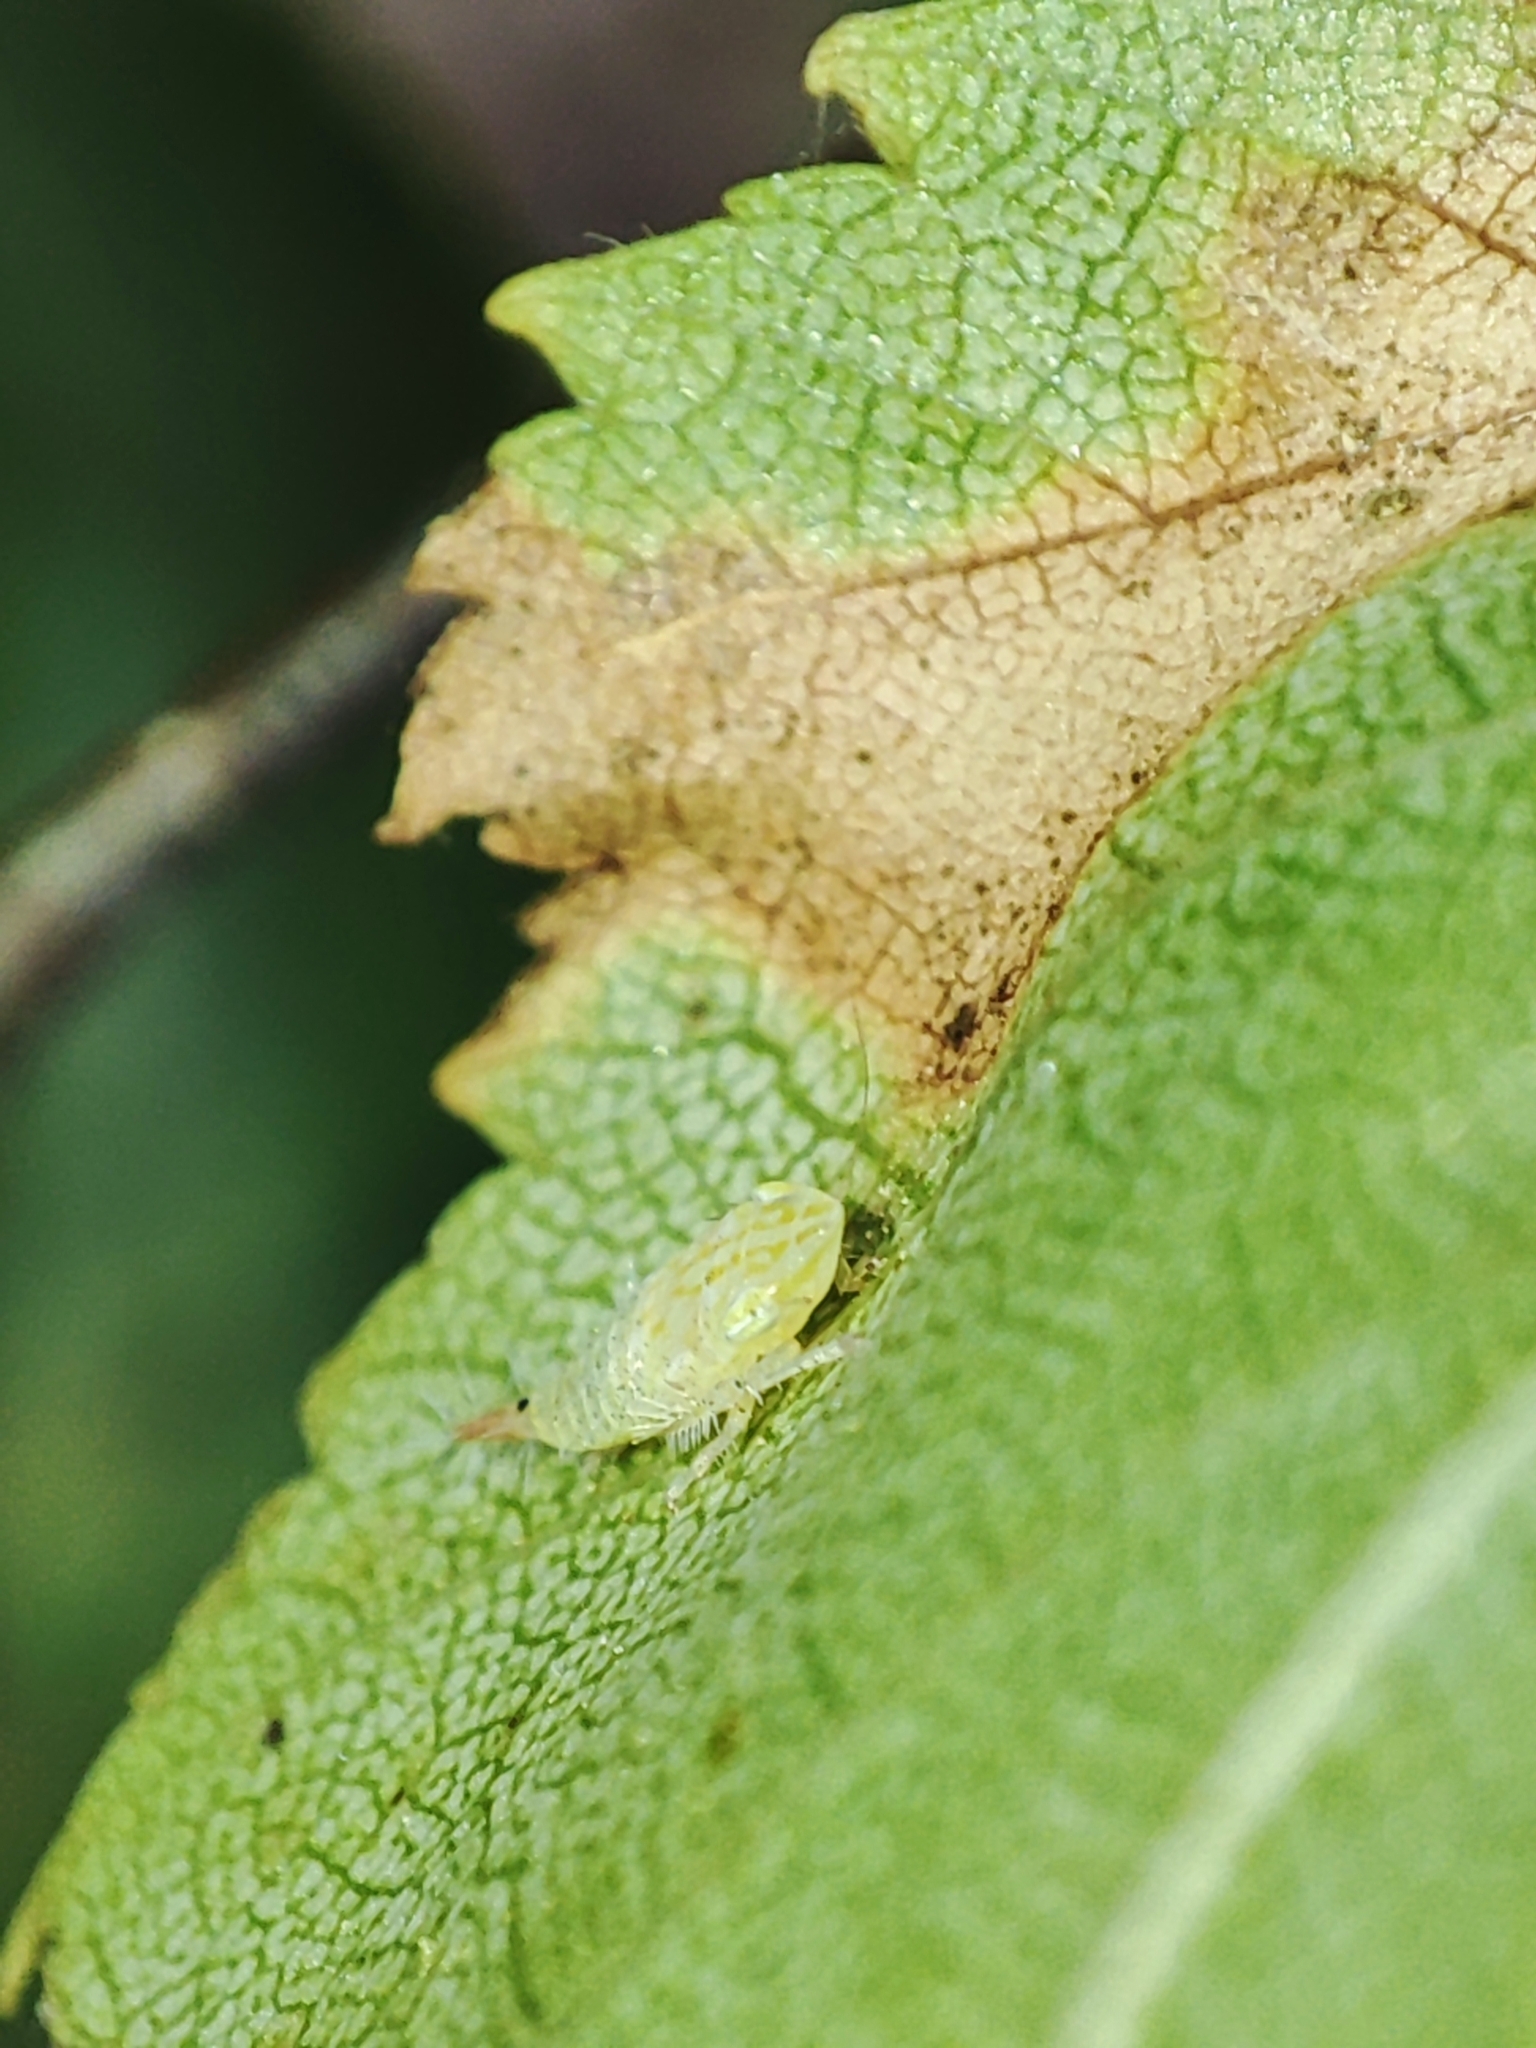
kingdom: Animalia
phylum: Arthropoda
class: Insecta
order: Hemiptera
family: Cicadellidae
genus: Fieberiella
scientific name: Fieberiella
